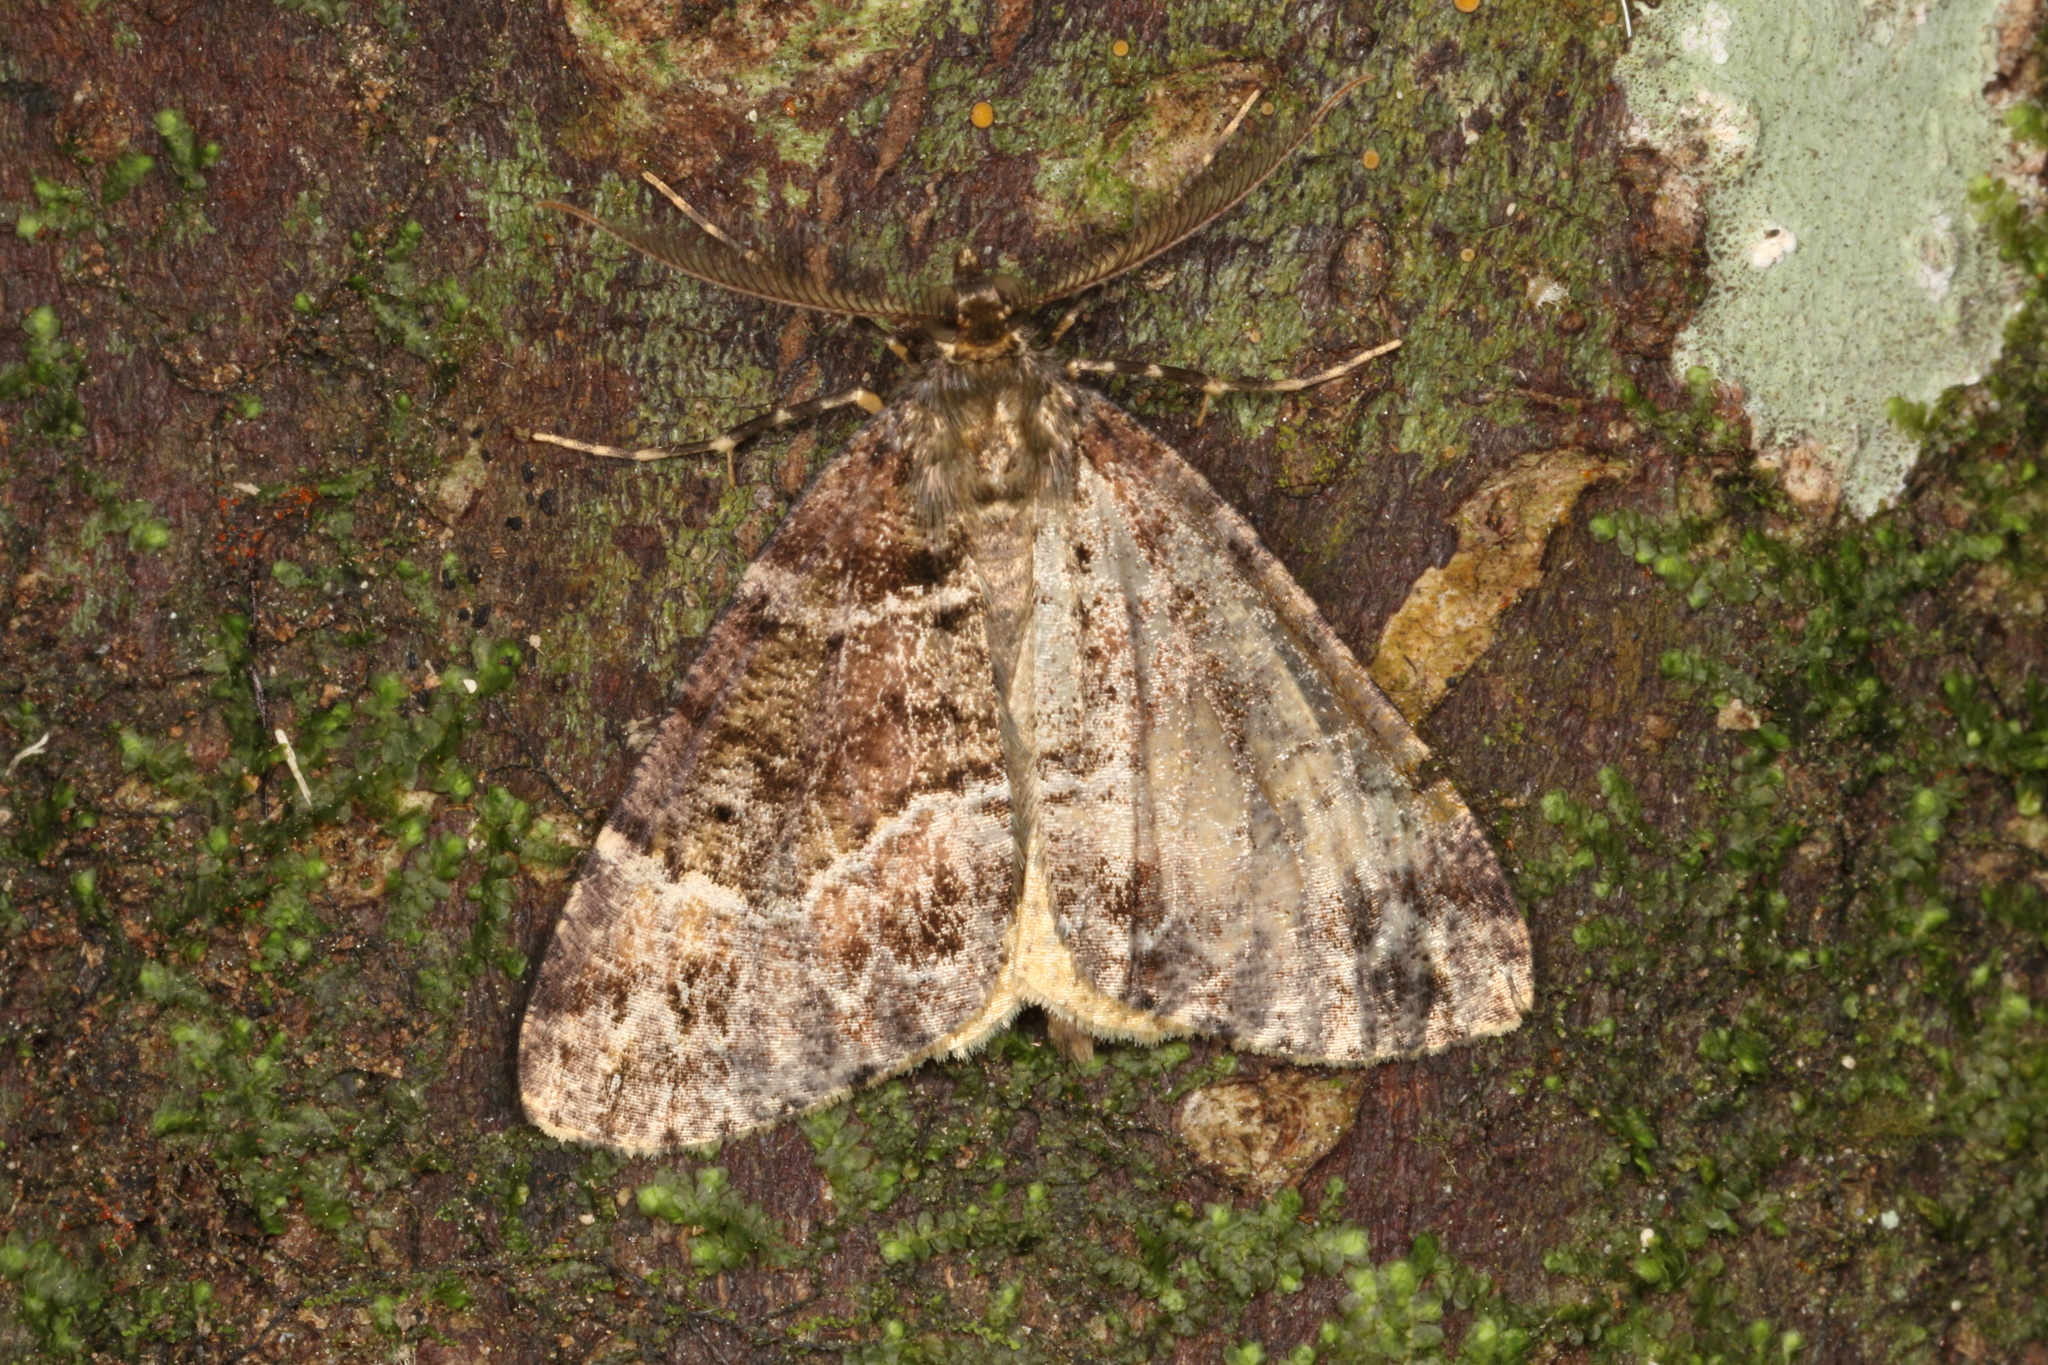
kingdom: Animalia
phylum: Arthropoda
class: Insecta
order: Lepidoptera
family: Geometridae
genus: Pseudocoremia
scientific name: Pseudocoremia productata
